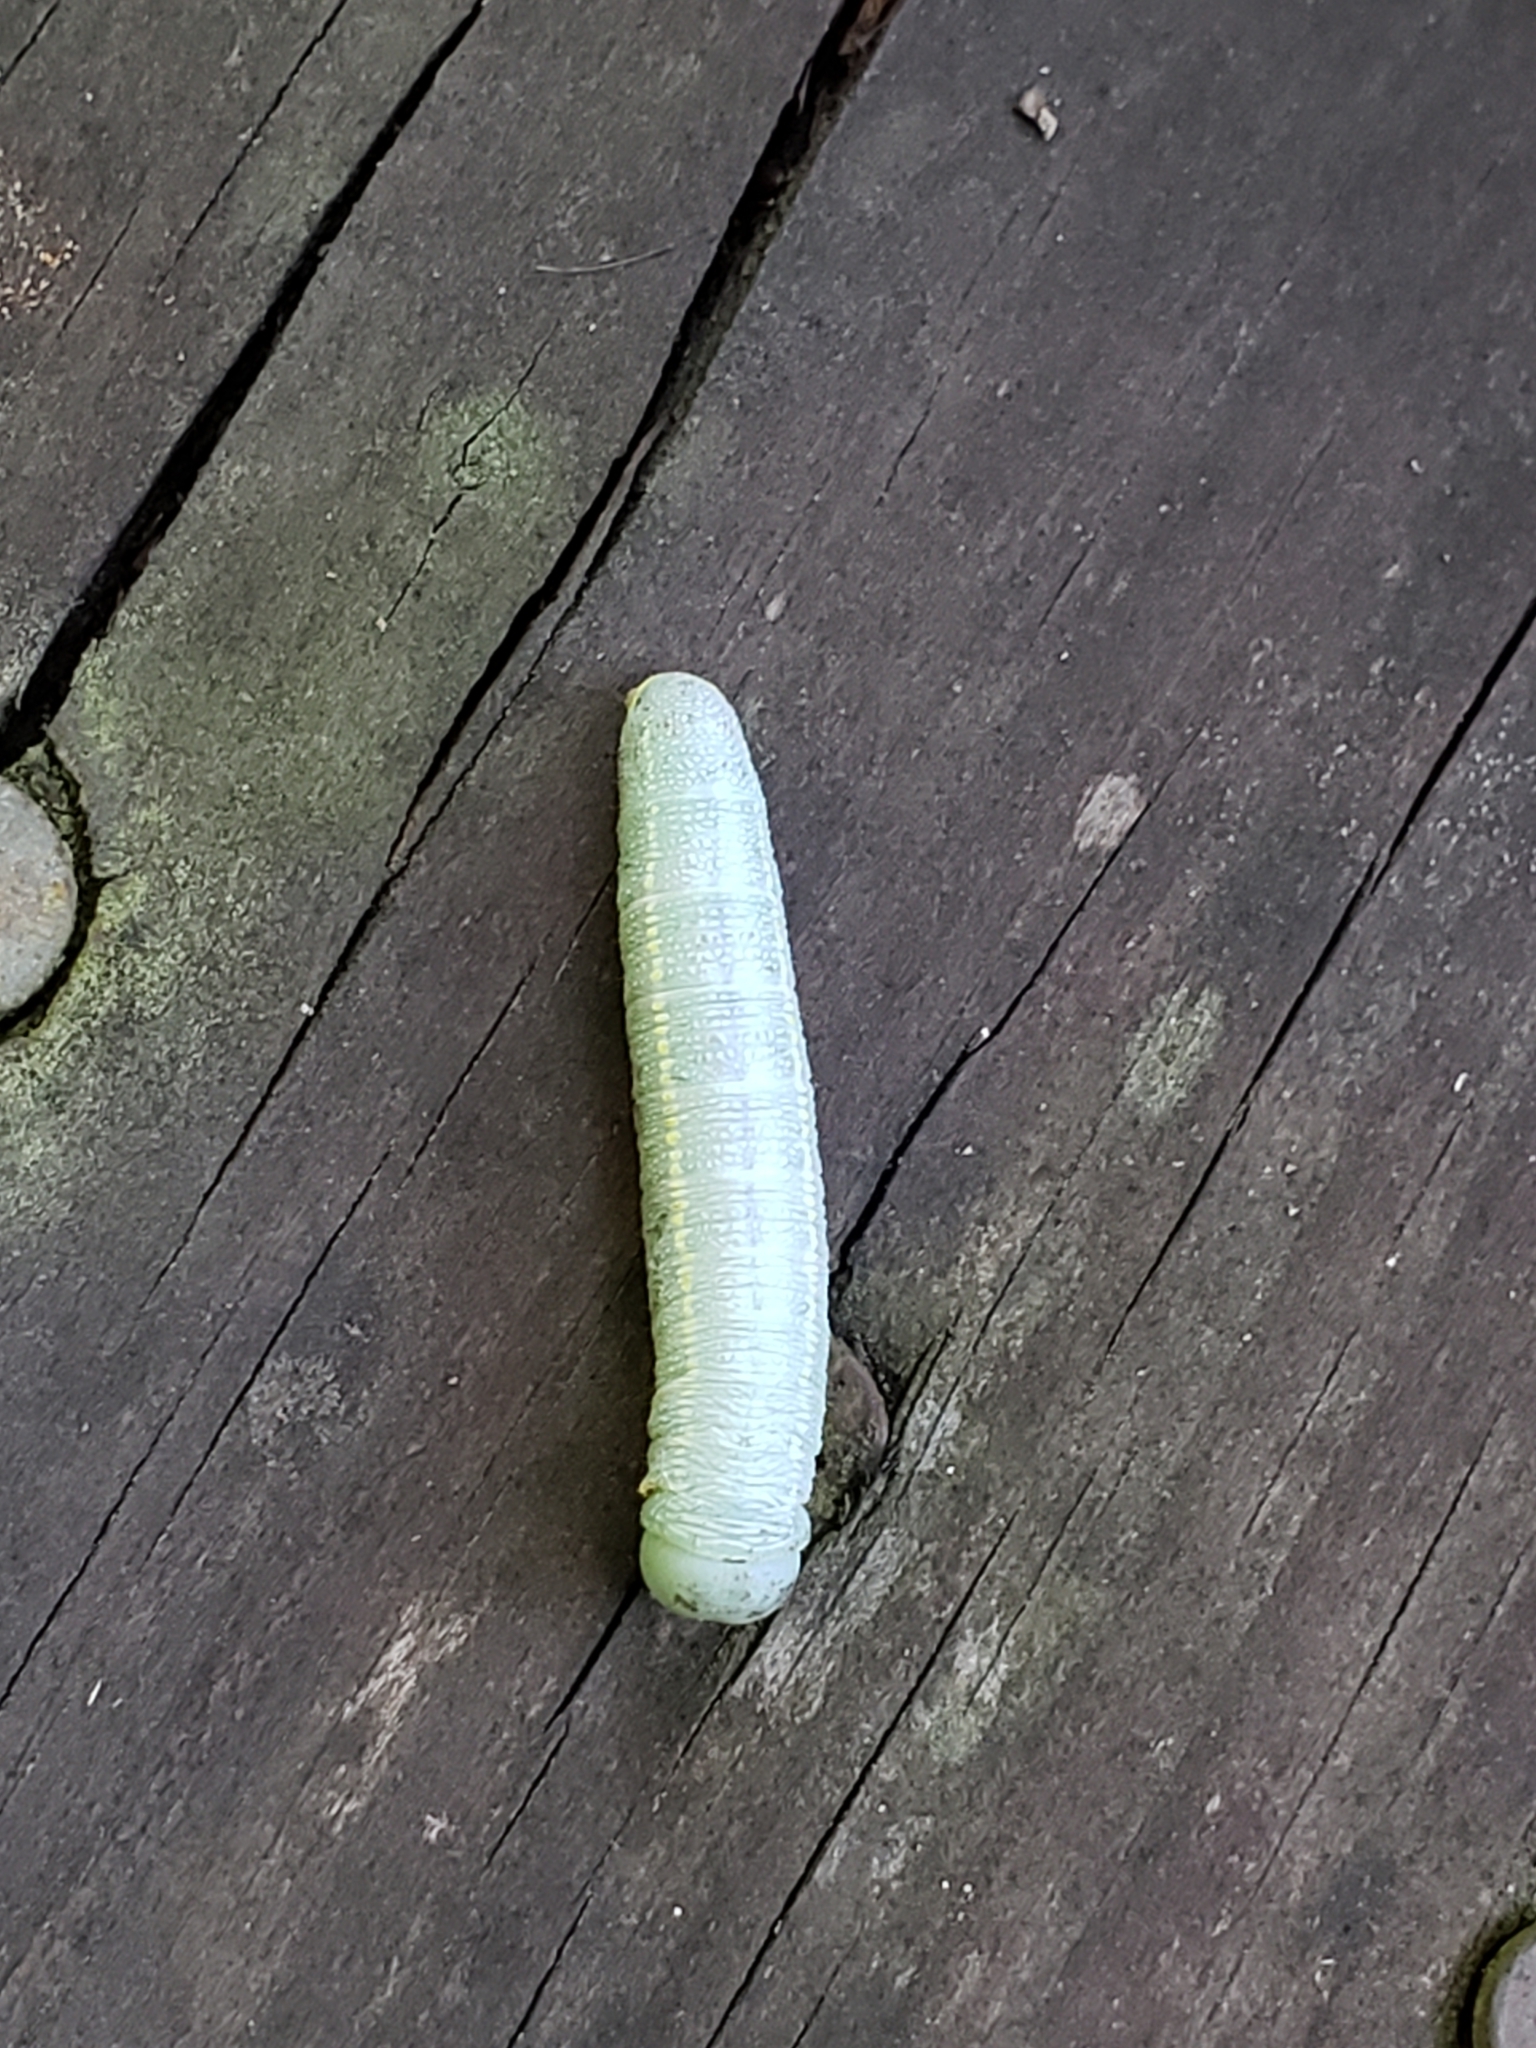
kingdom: Animalia
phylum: Arthropoda
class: Insecta
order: Lepidoptera
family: Notodontidae
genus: Nadata
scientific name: Nadata gibbosa
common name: White-dotted prominent
